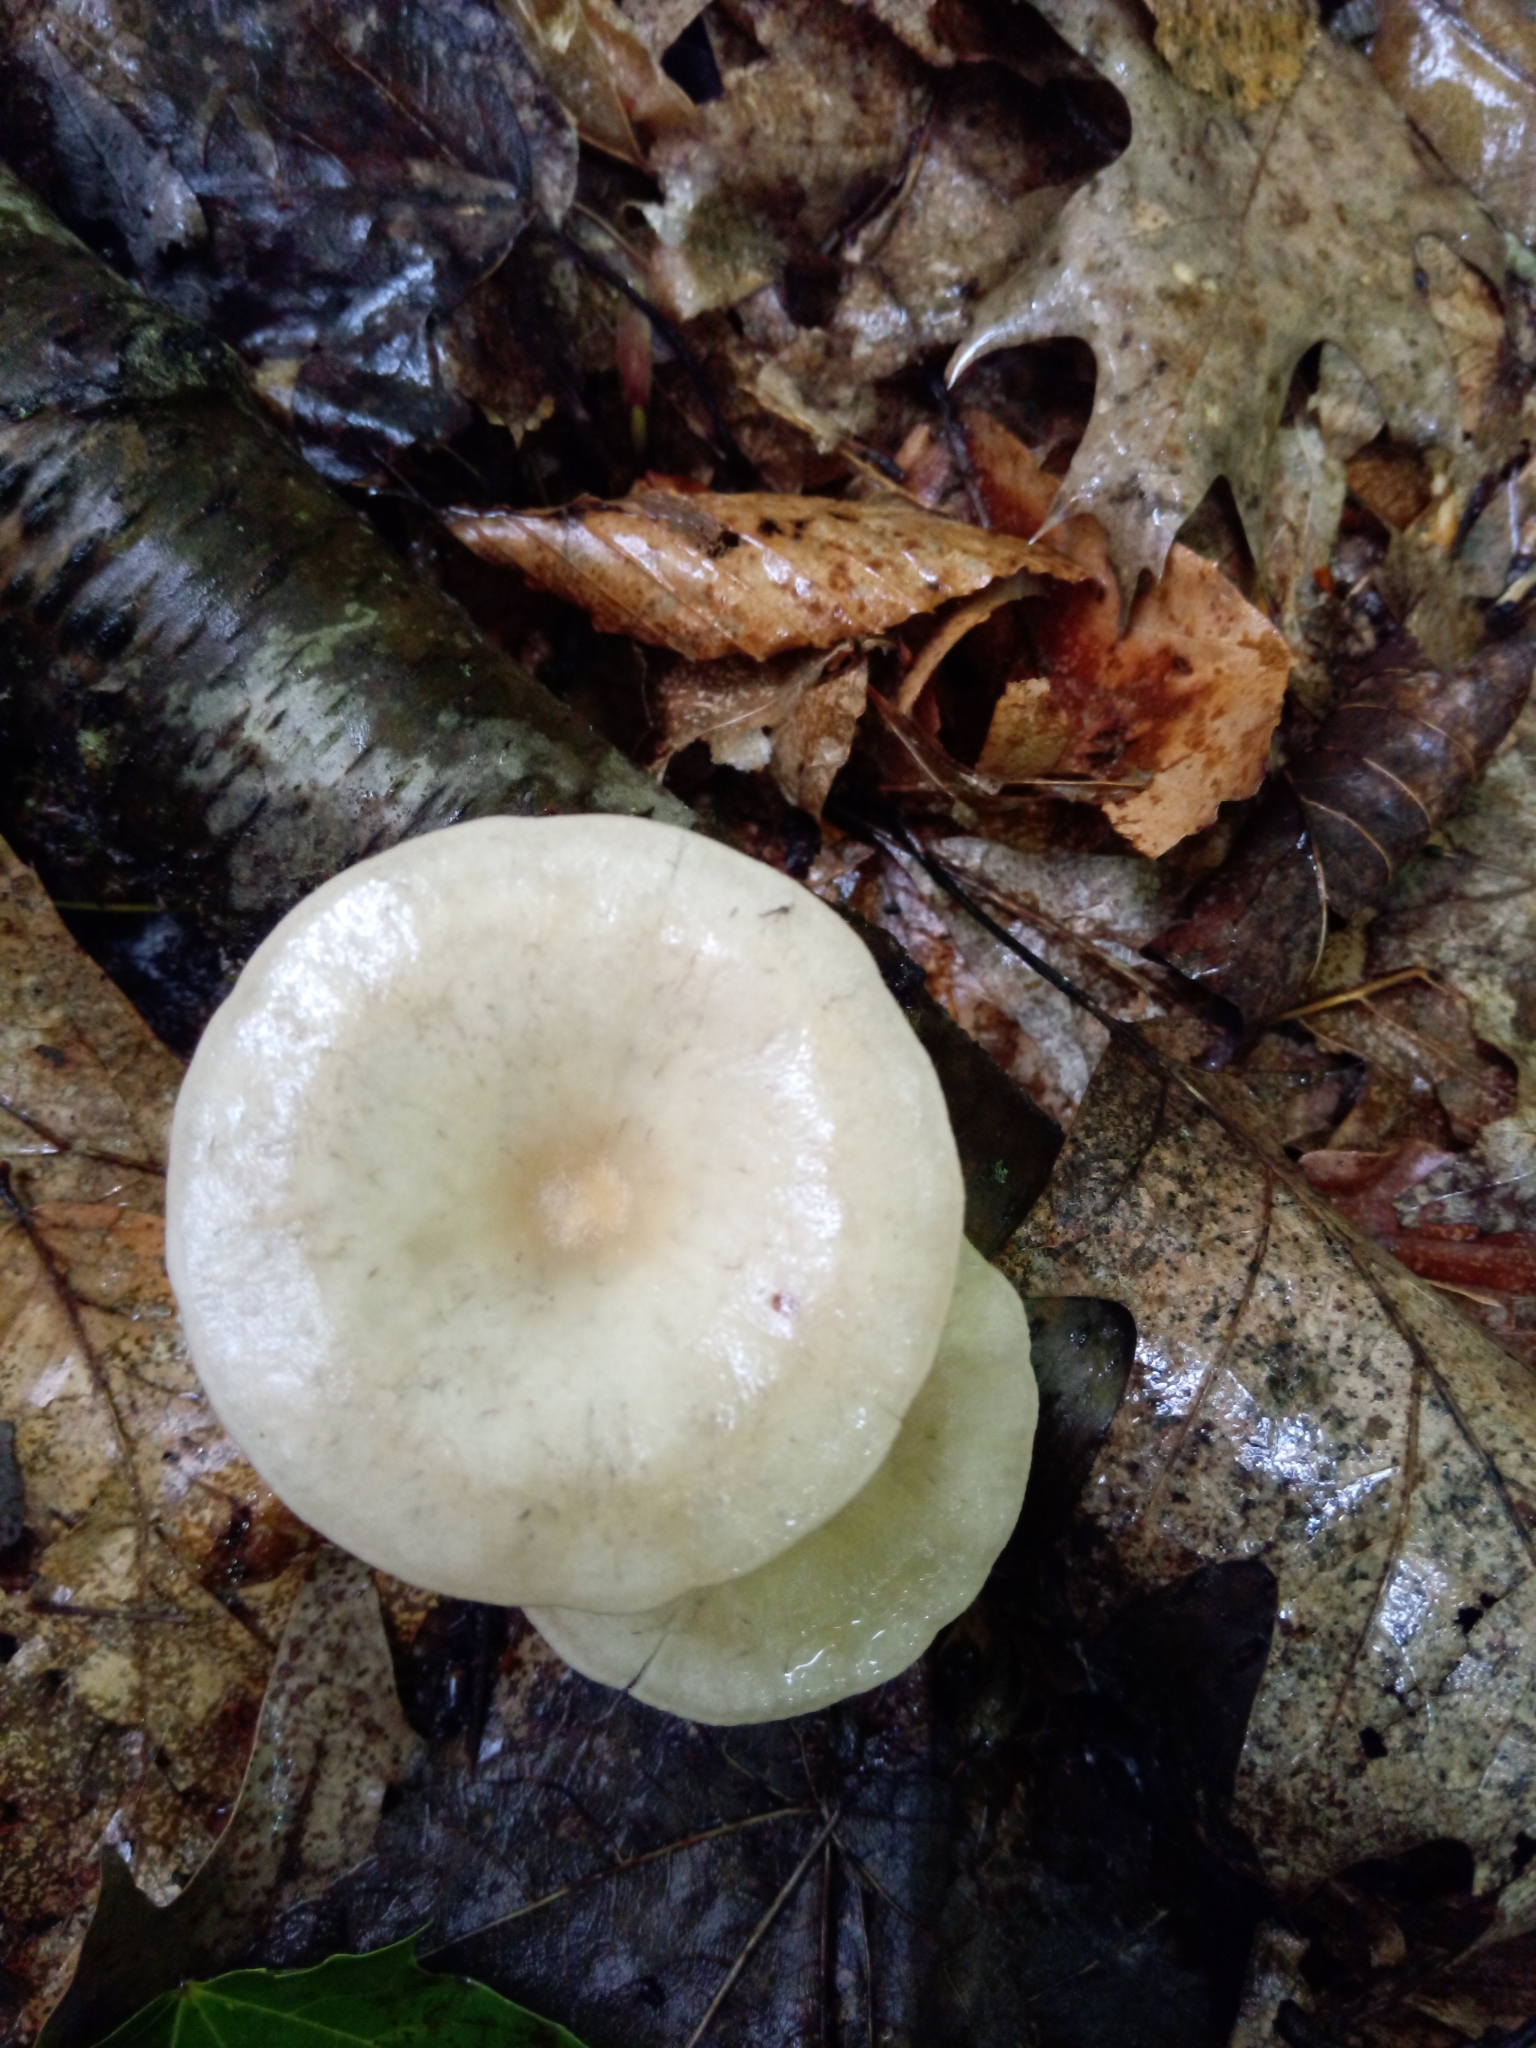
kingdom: Fungi
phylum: Basidiomycota
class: Agaricomycetes
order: Agaricales
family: Tricholomataceae
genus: Singerocybe
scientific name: Singerocybe adirondackensis
